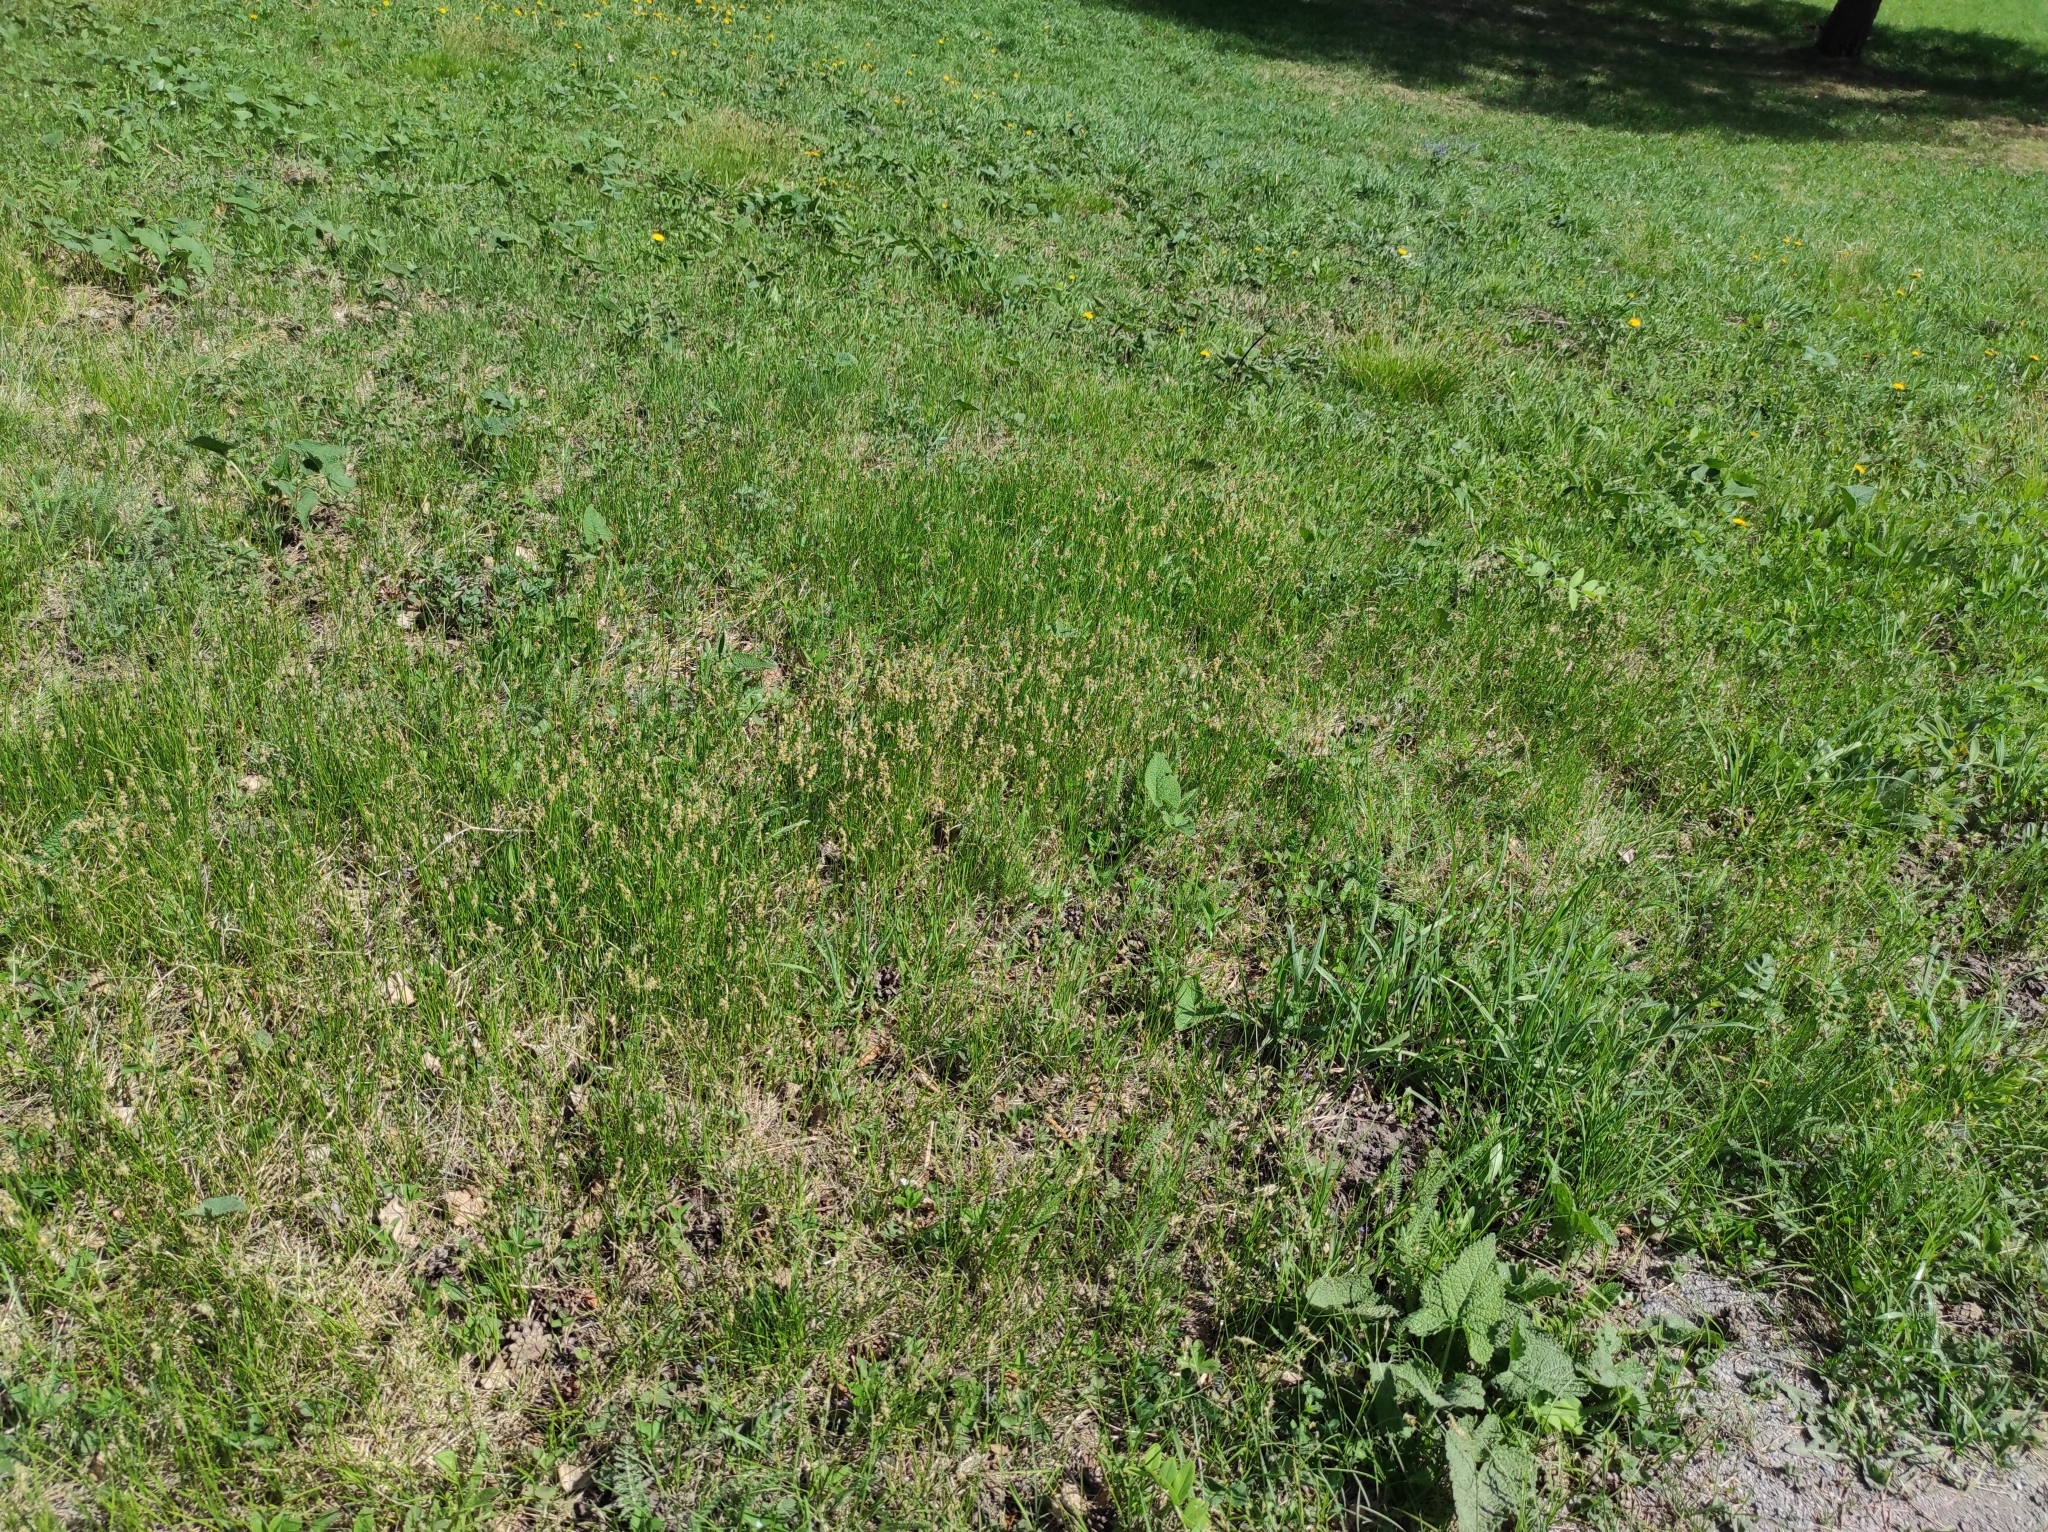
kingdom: Plantae
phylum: Tracheophyta
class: Magnoliopsida
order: Fabales
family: Fabaceae
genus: Lathyrus
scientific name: Lathyrus vernus
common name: Spring pea
